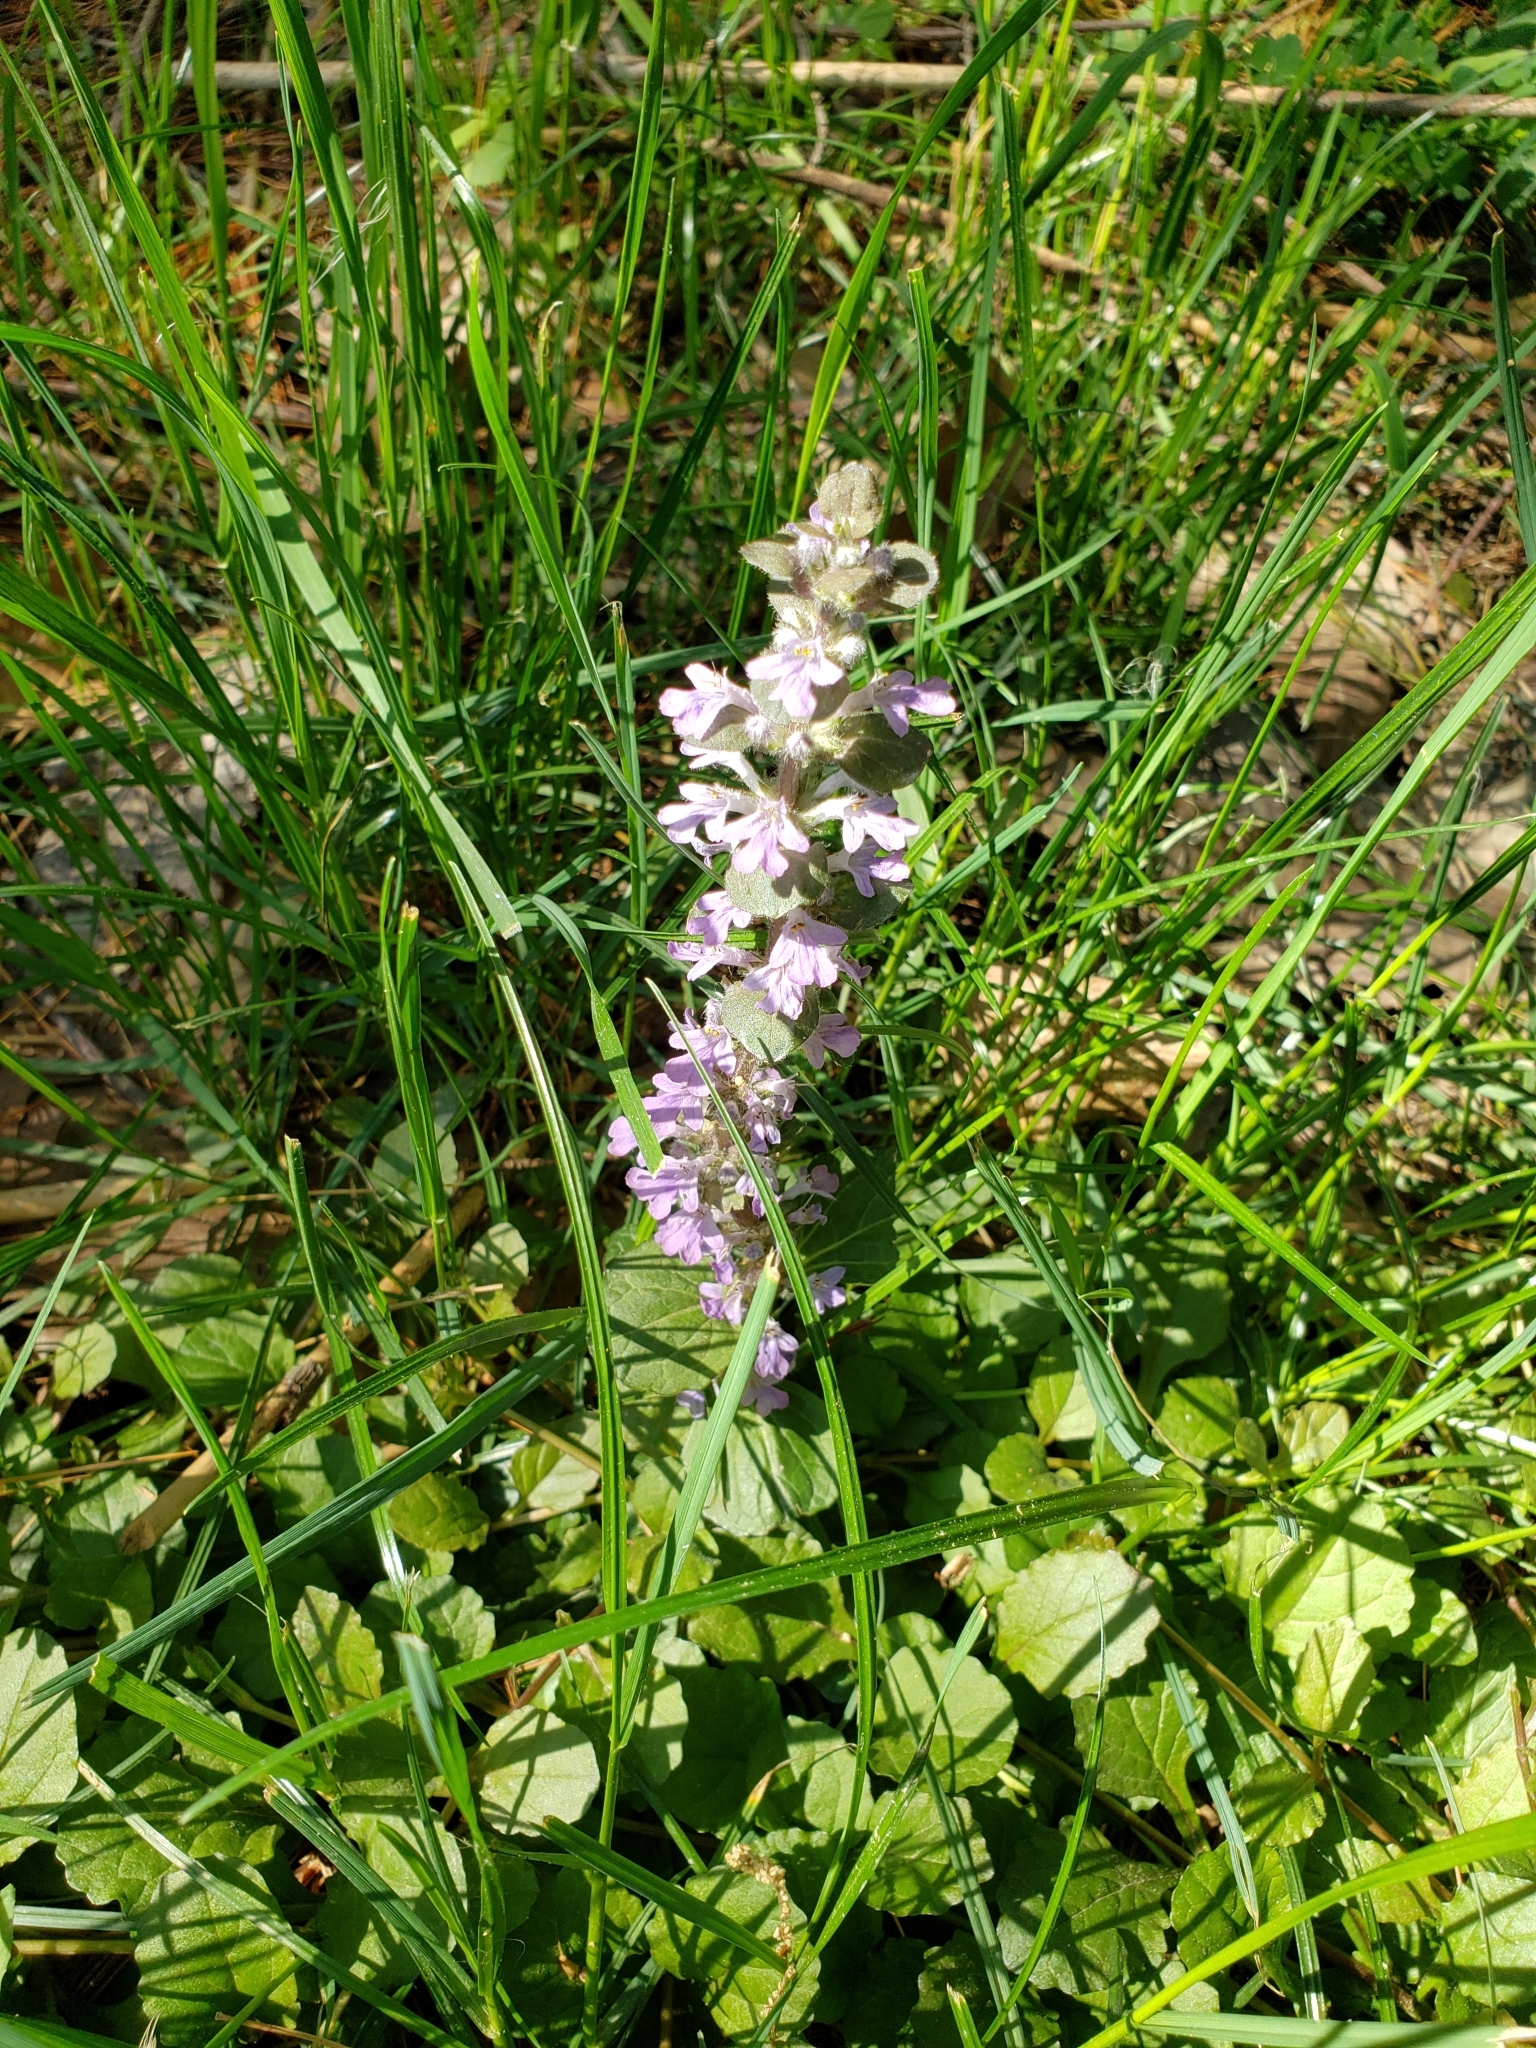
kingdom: Plantae
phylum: Tracheophyta
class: Magnoliopsida
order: Lamiales
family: Lamiaceae
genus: Ajuga
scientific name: Ajuga reptans
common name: Bugle
